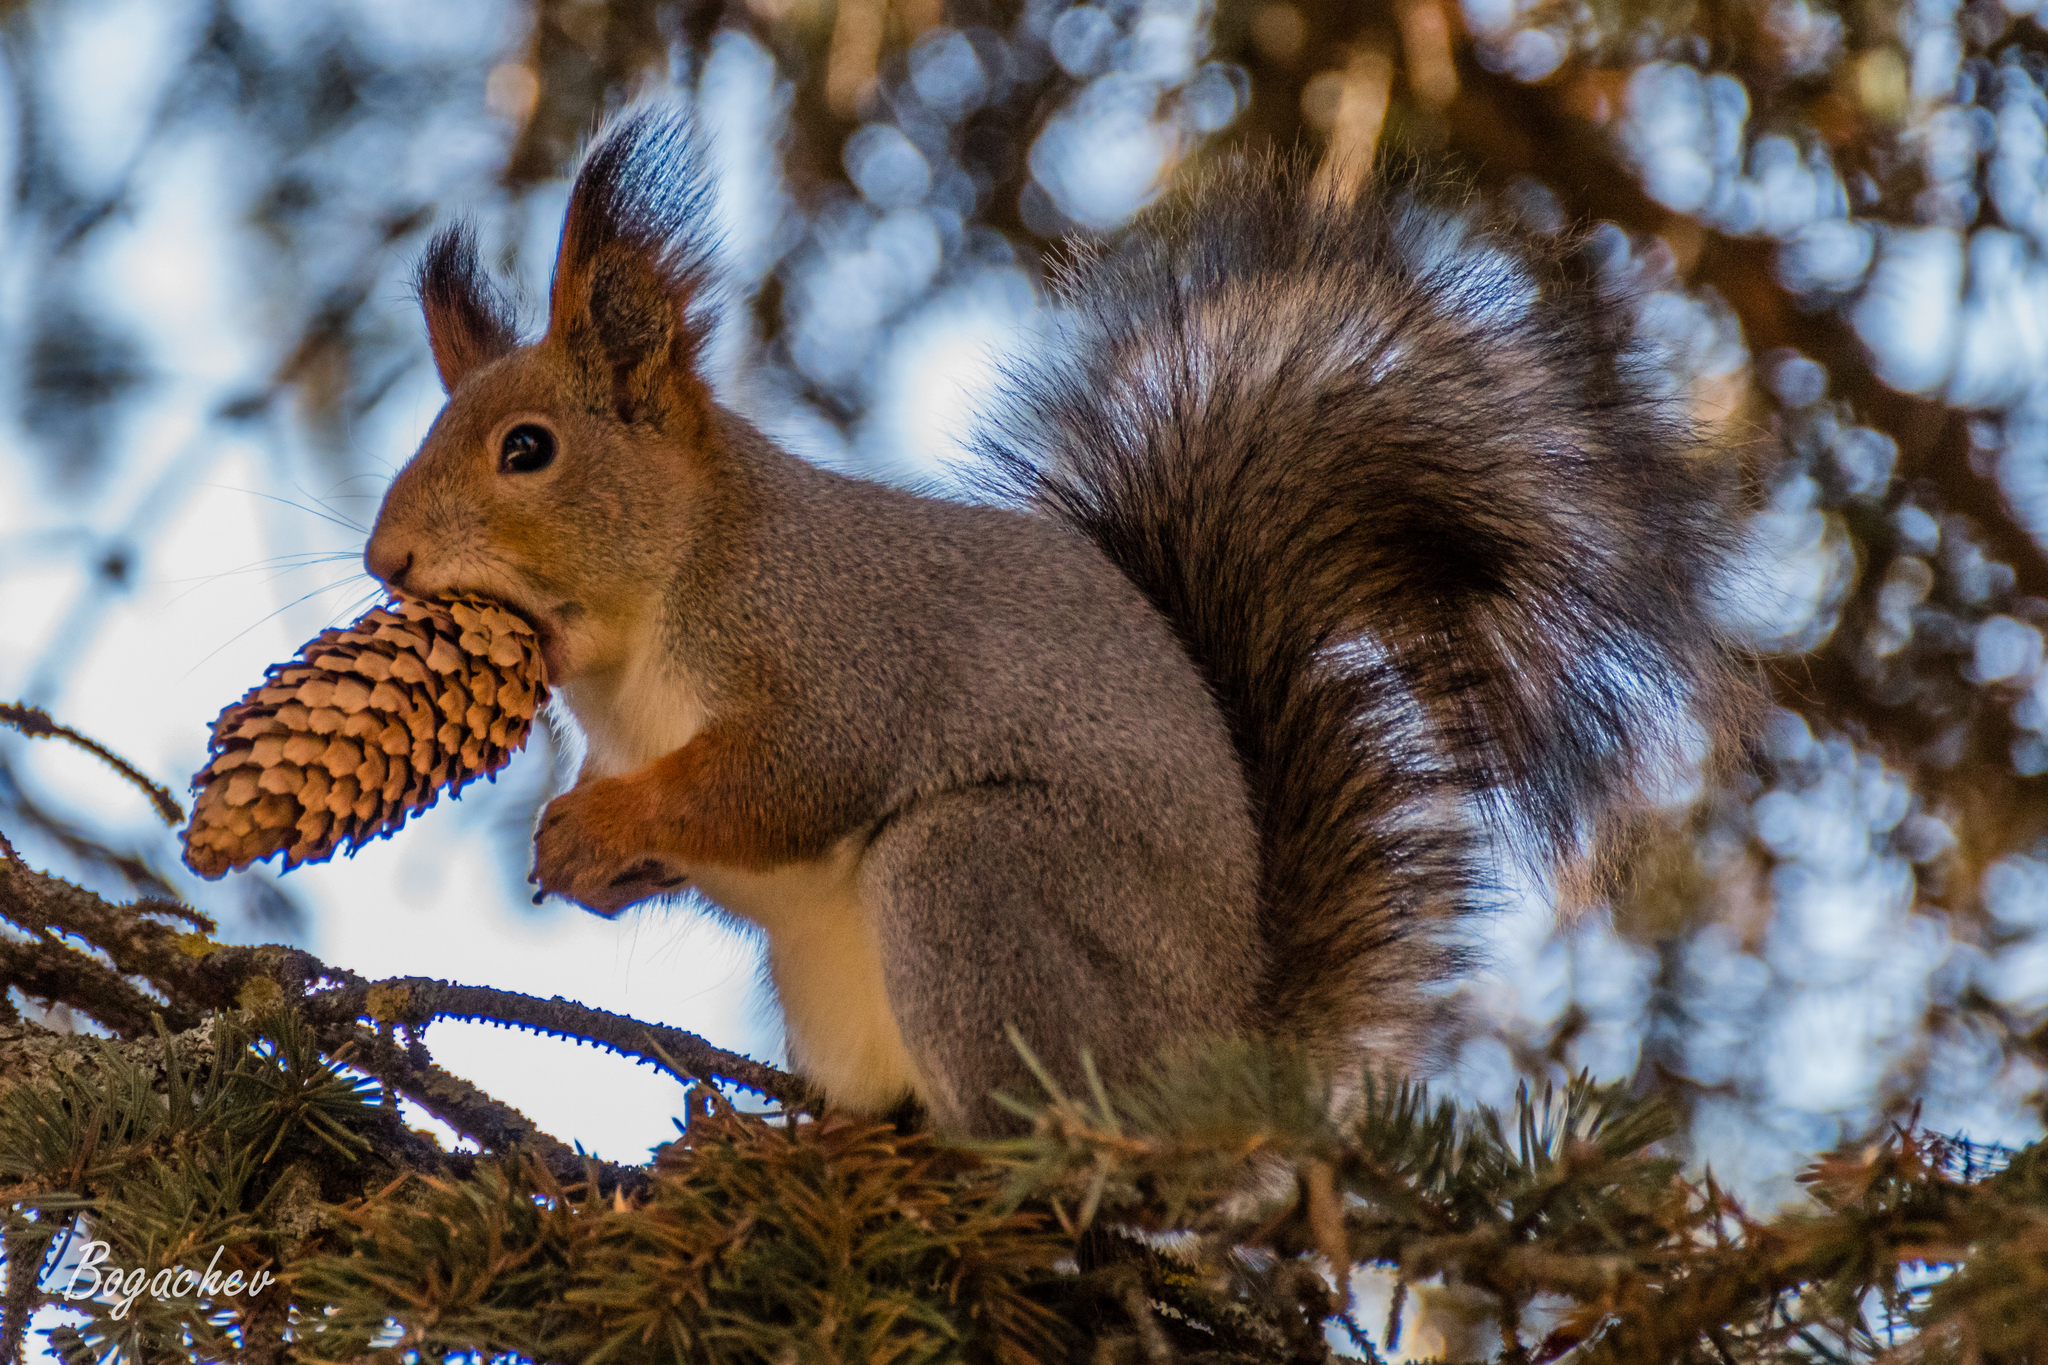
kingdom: Animalia
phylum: Chordata
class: Mammalia
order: Rodentia
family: Sciuridae
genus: Sciurus
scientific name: Sciurus vulgaris
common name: Eurasian red squirrel
